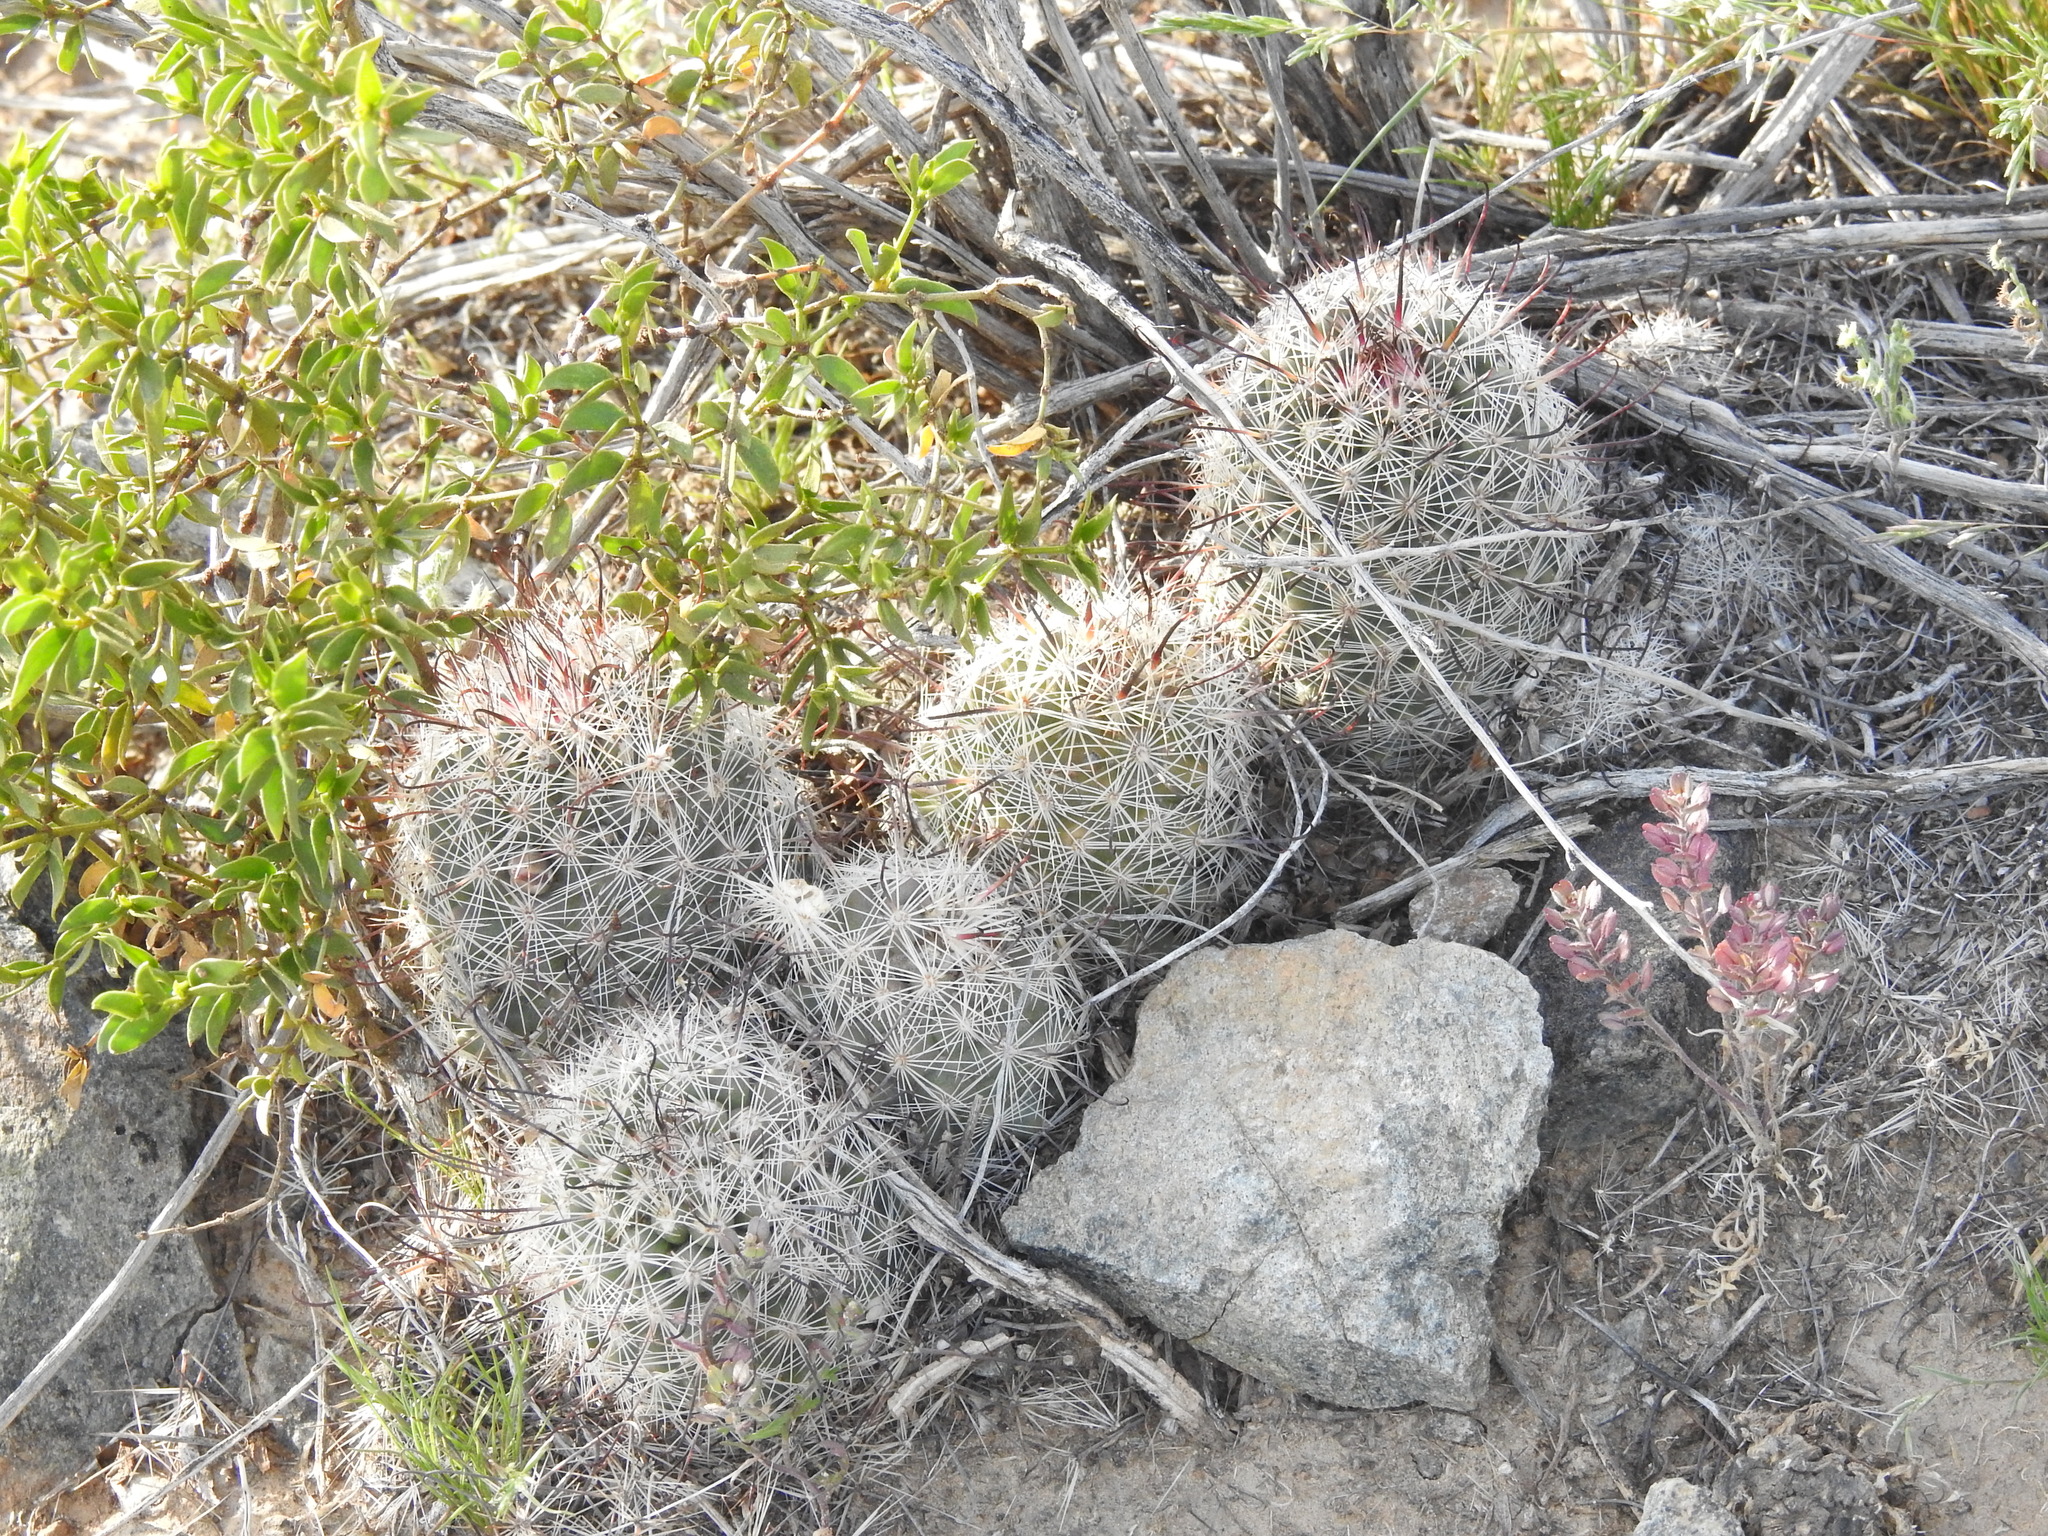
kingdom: Plantae
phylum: Tracheophyta
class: Magnoliopsida
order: Caryophyllales
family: Cactaceae
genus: Cochemiea
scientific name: Cochemiea grahamii
